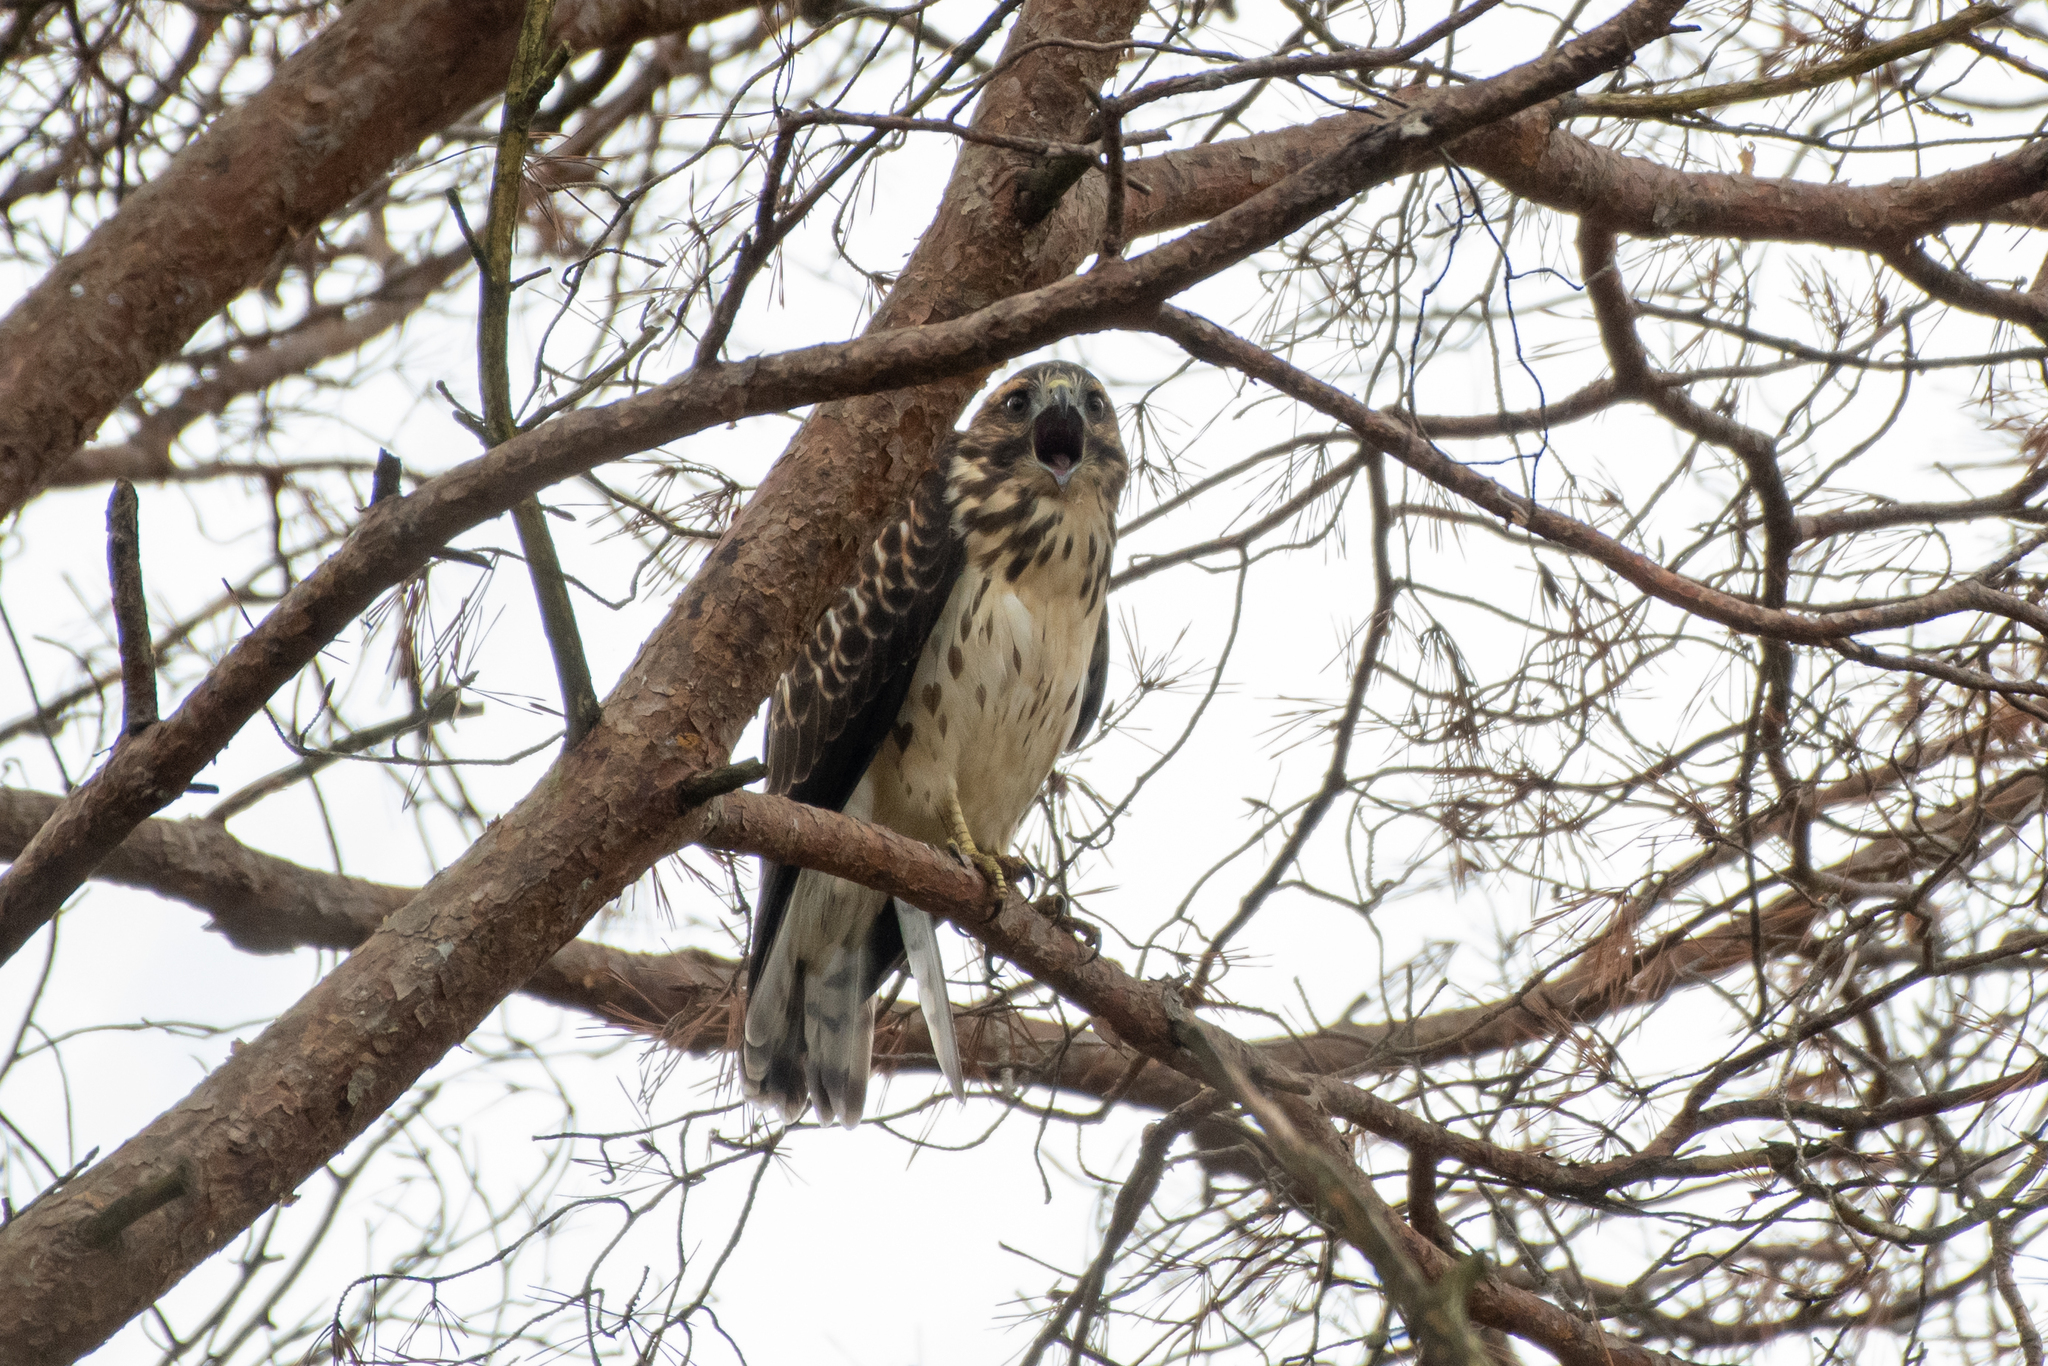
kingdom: Animalia
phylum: Chordata
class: Aves
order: Accipitriformes
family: Accipitridae
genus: Buteo
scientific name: Buteo platypterus
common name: Broad-winged hawk
